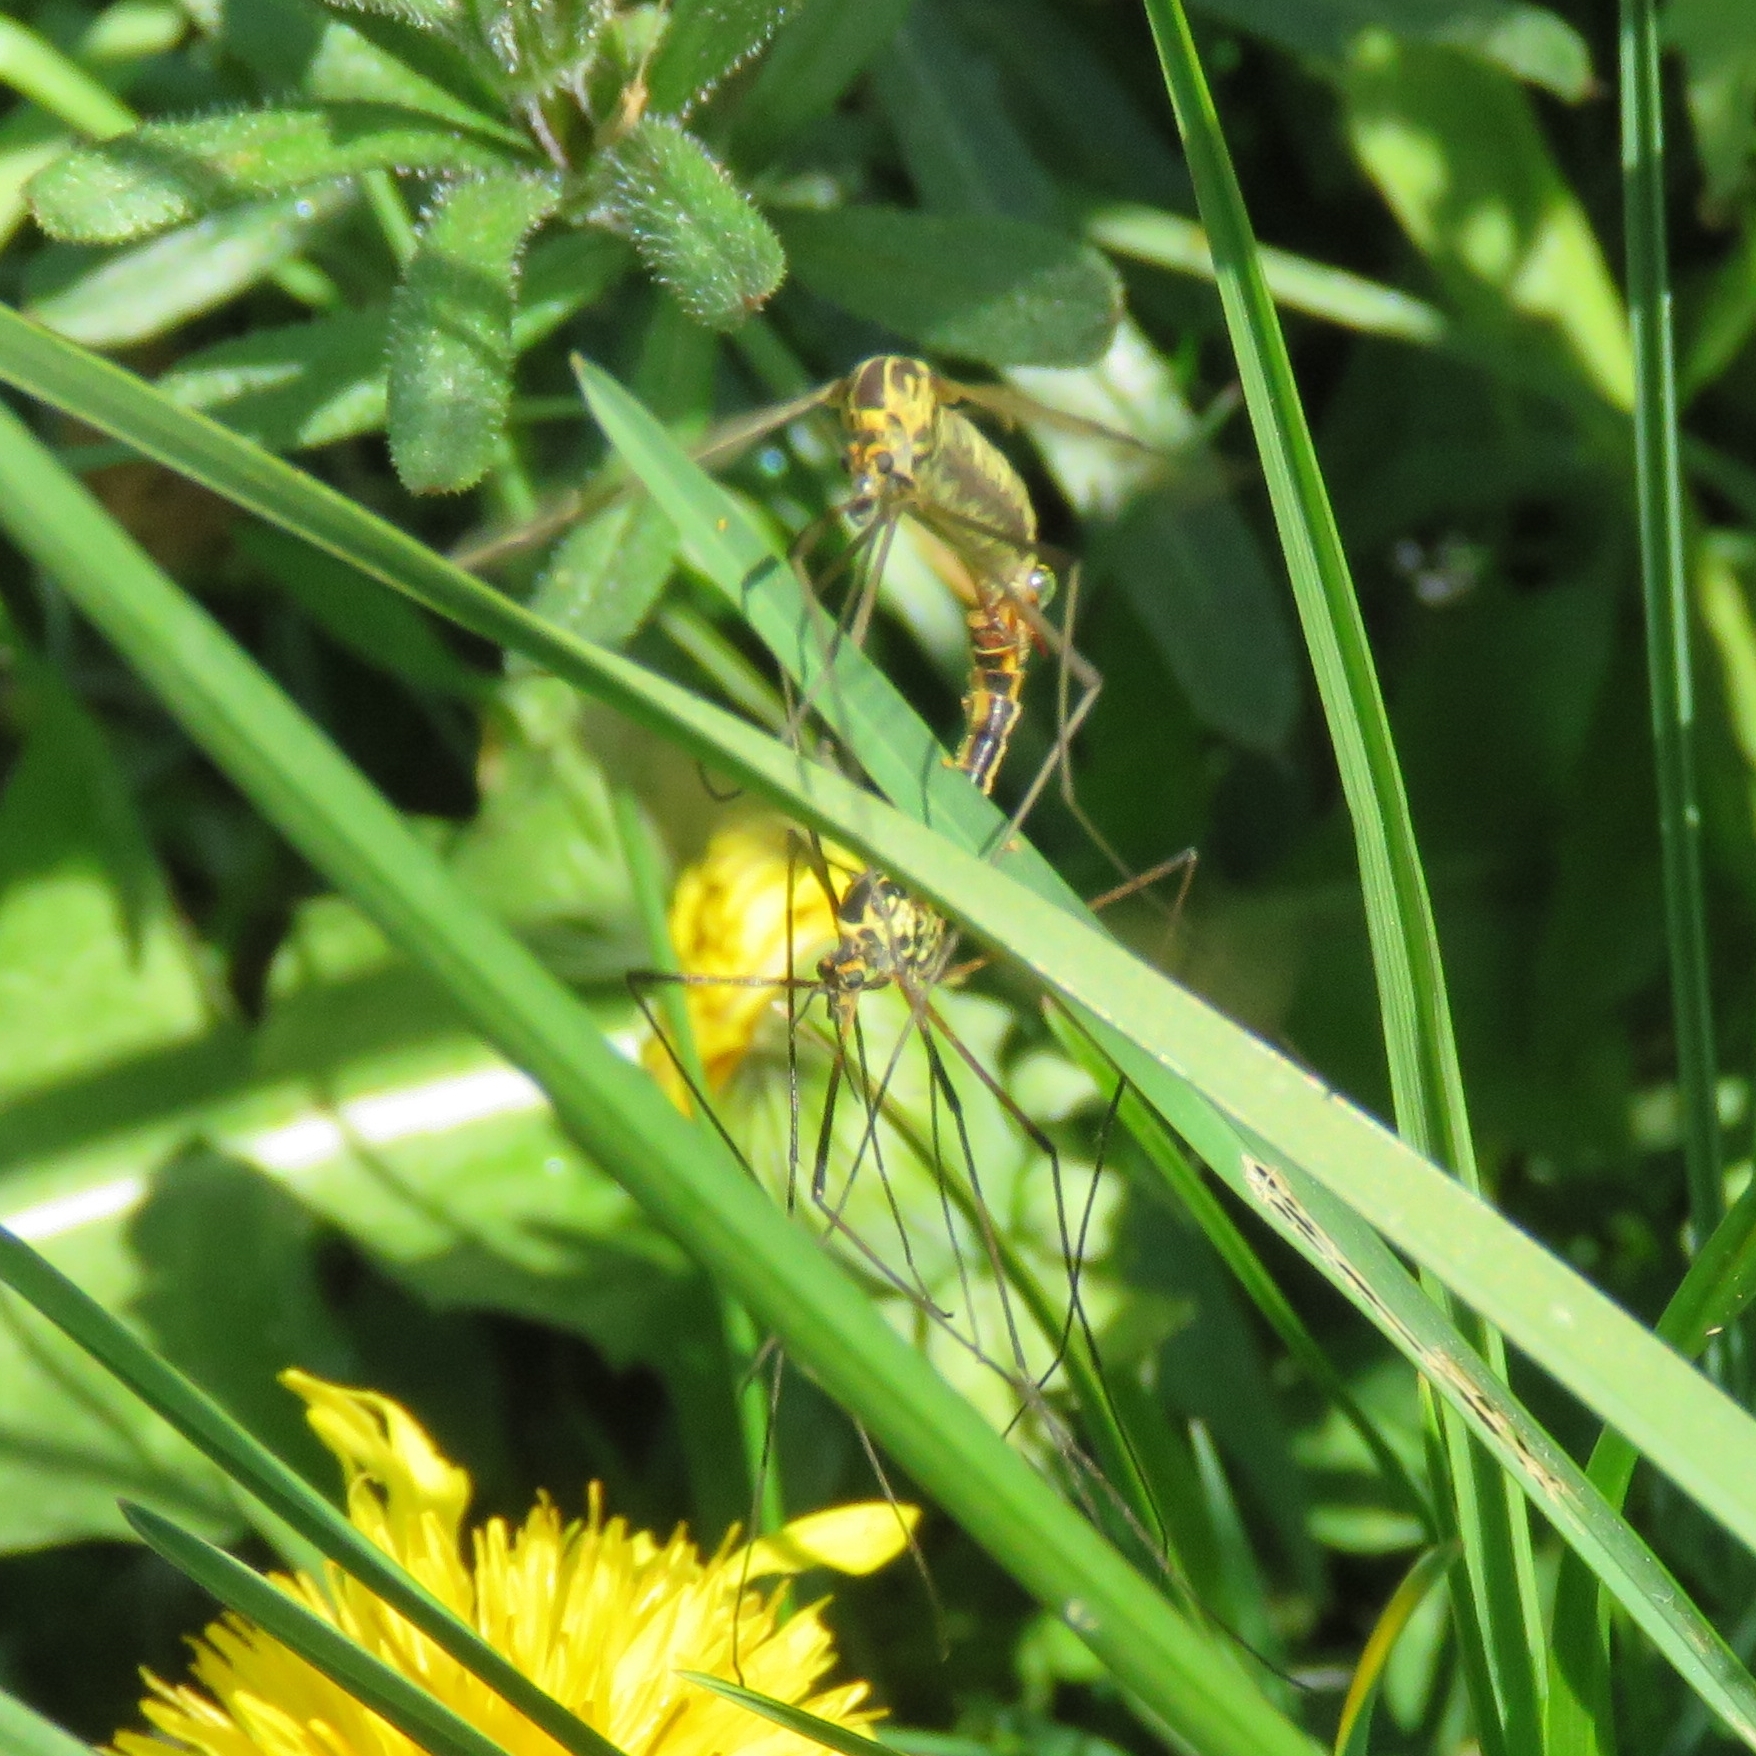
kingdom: Animalia
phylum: Arthropoda
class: Insecta
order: Diptera
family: Tipulidae
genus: Nephrotoma
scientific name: Nephrotoma appendiculata
